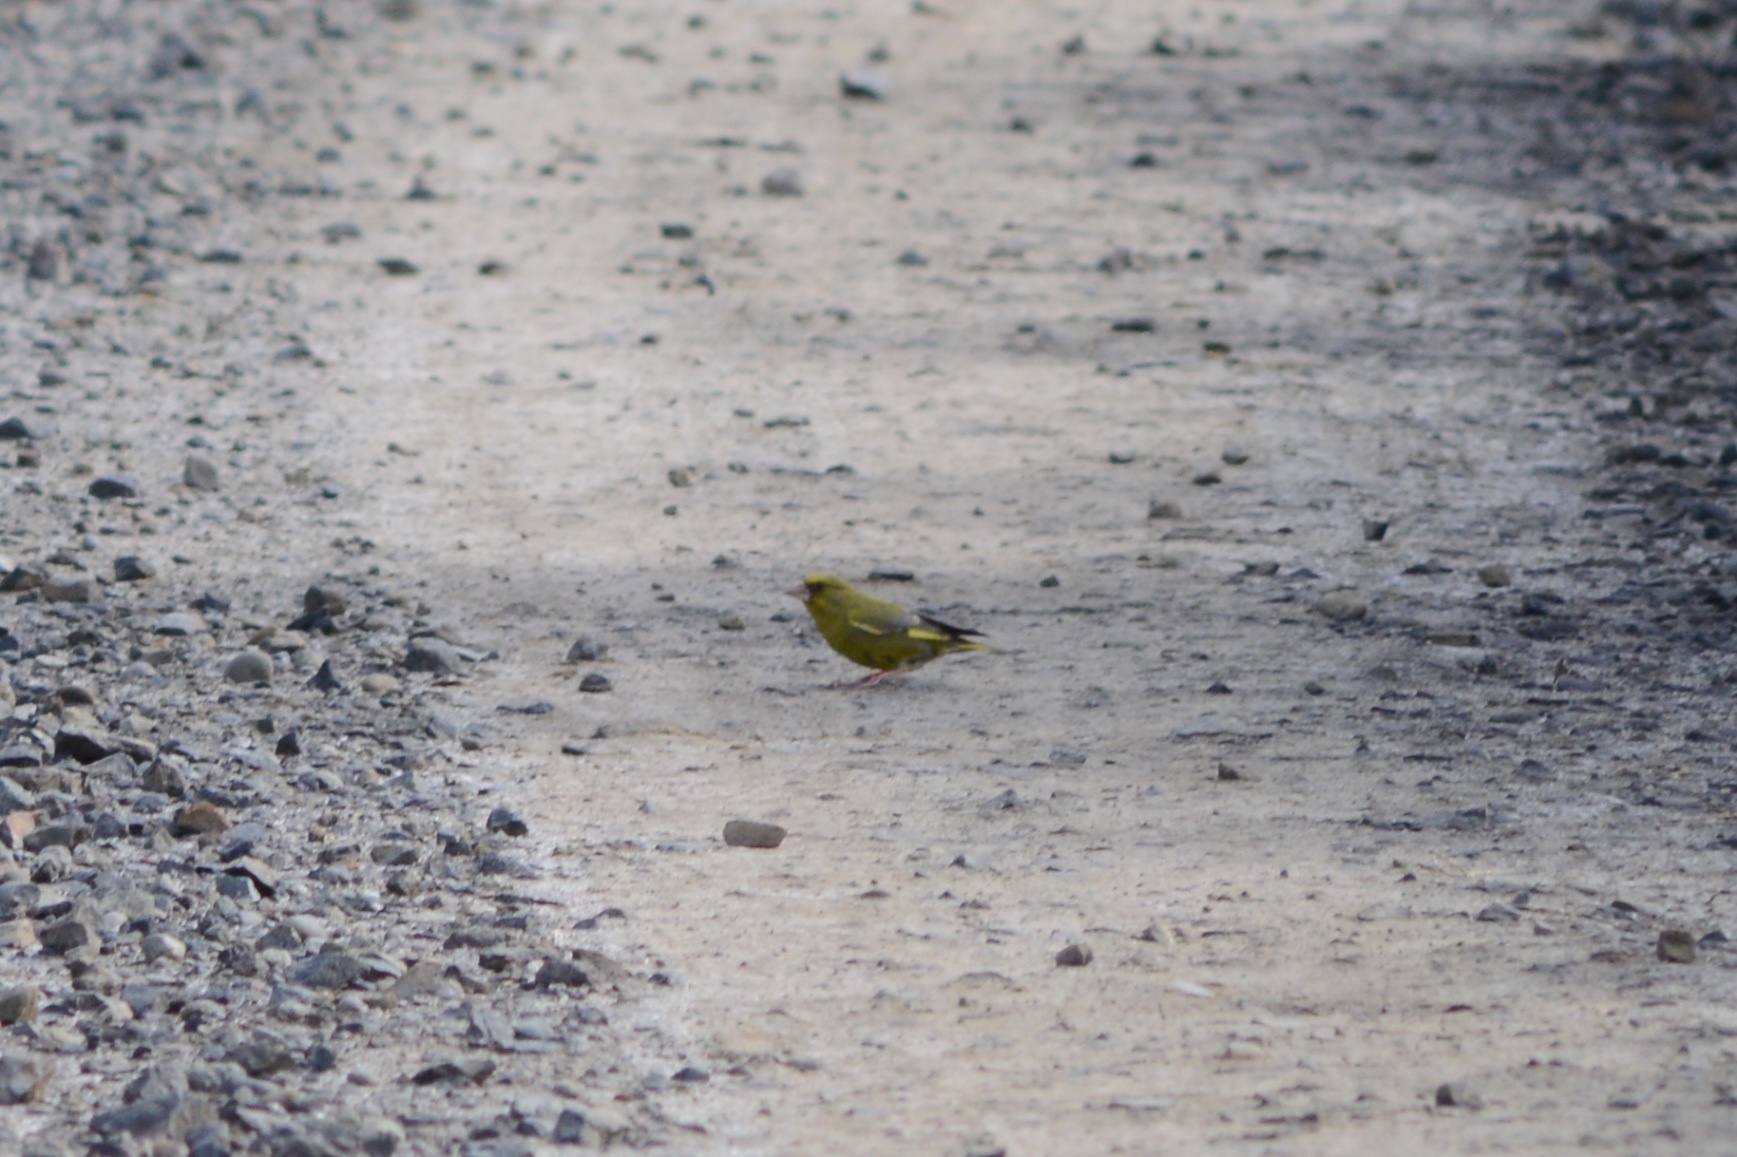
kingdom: Plantae
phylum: Tracheophyta
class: Liliopsida
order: Poales
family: Poaceae
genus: Chloris
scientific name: Chloris chloris
